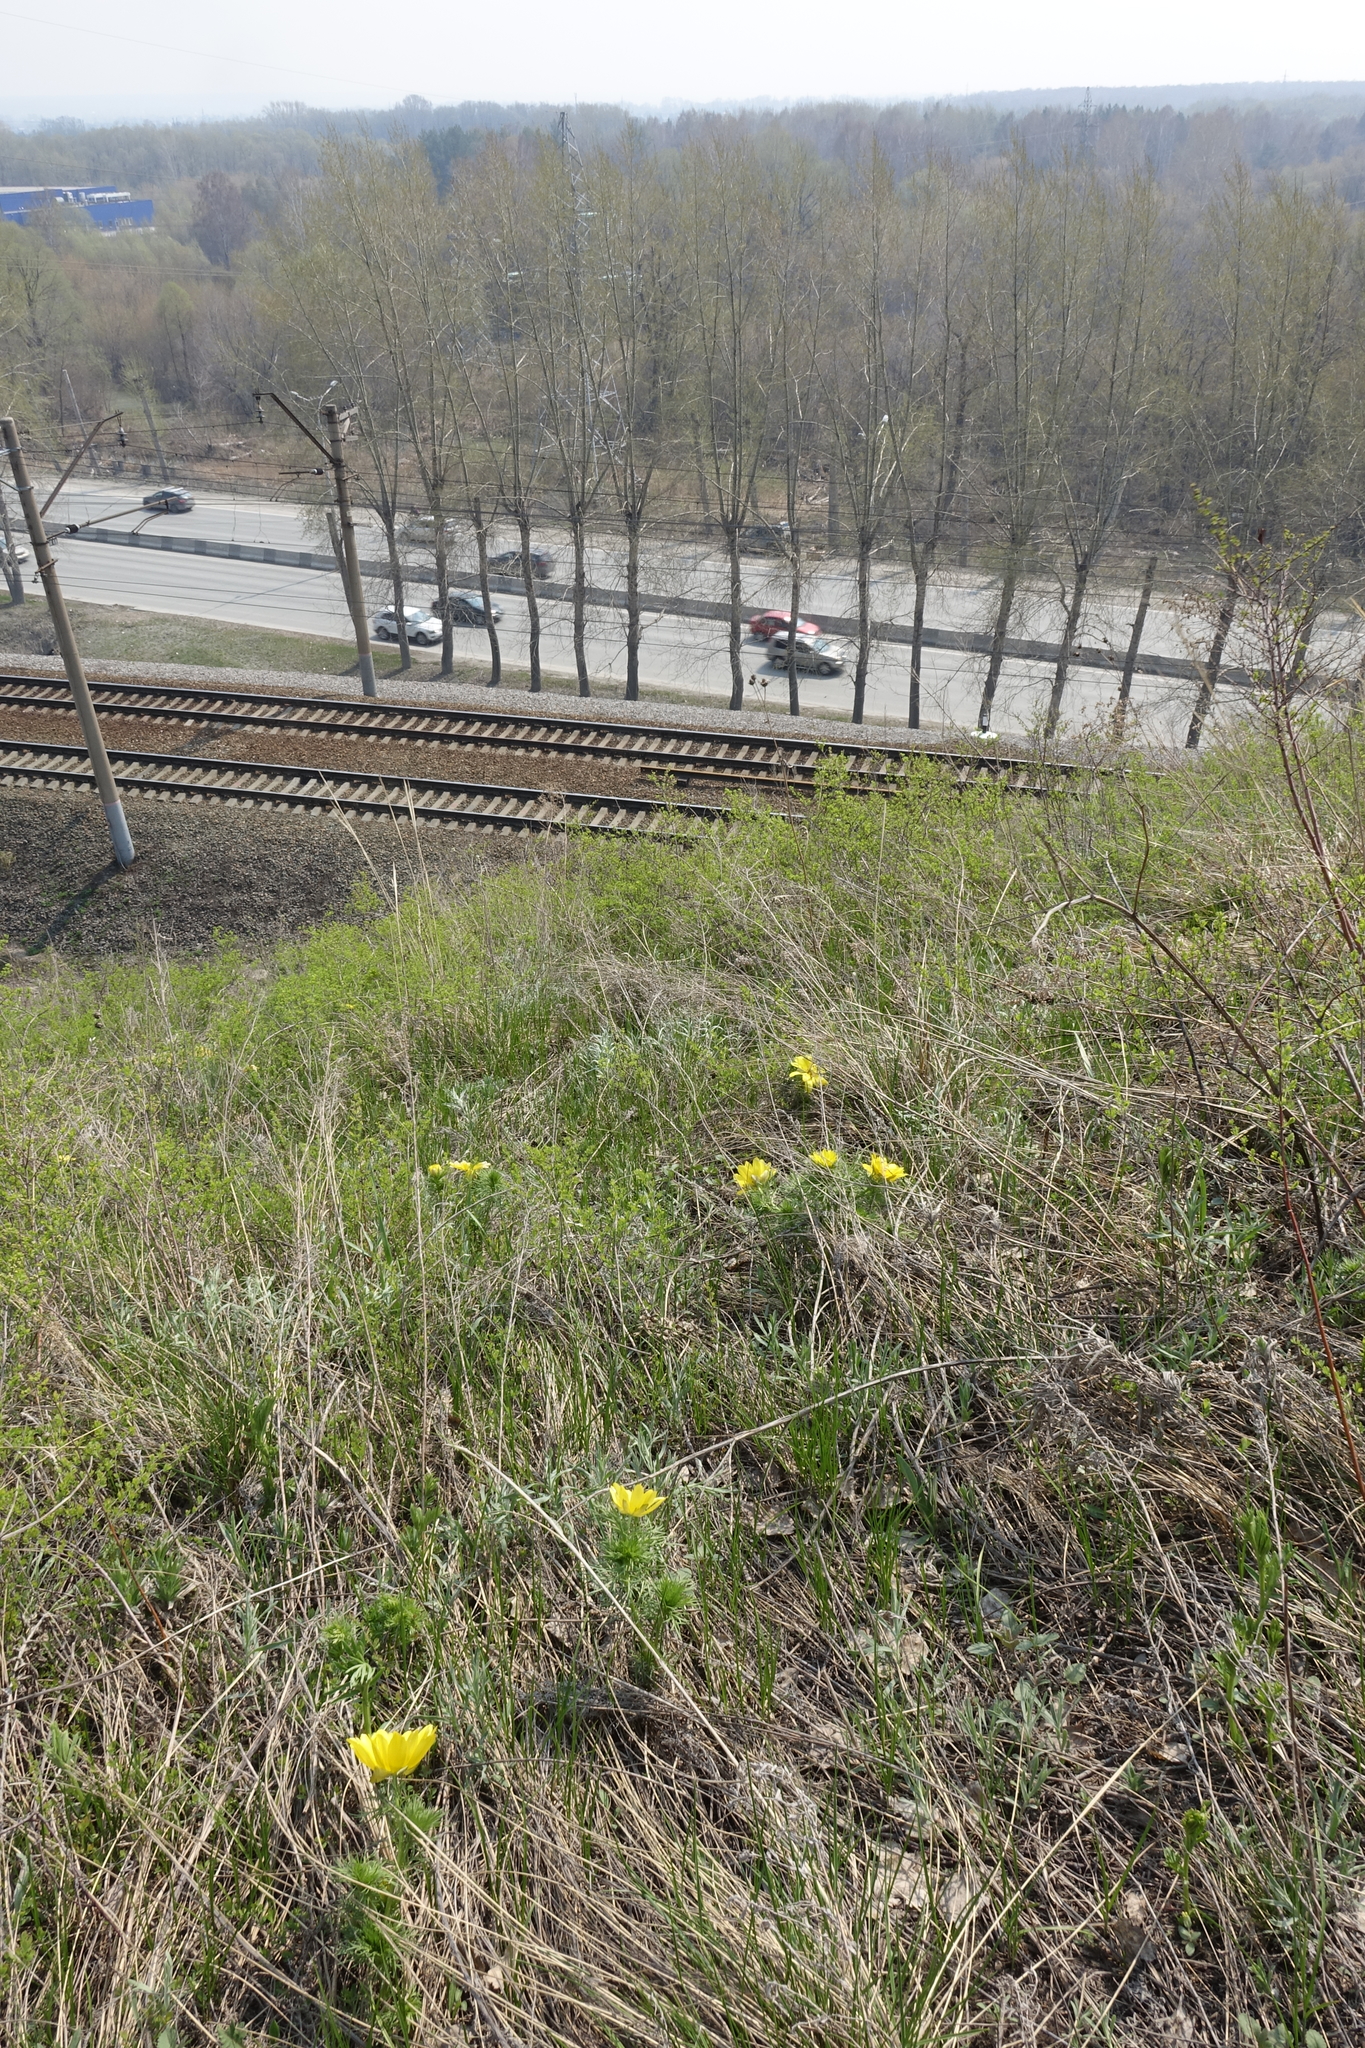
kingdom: Plantae
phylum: Tracheophyta
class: Magnoliopsida
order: Ranunculales
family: Ranunculaceae
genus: Adonis
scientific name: Adonis vernalis
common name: Yellow pheasants-eye
